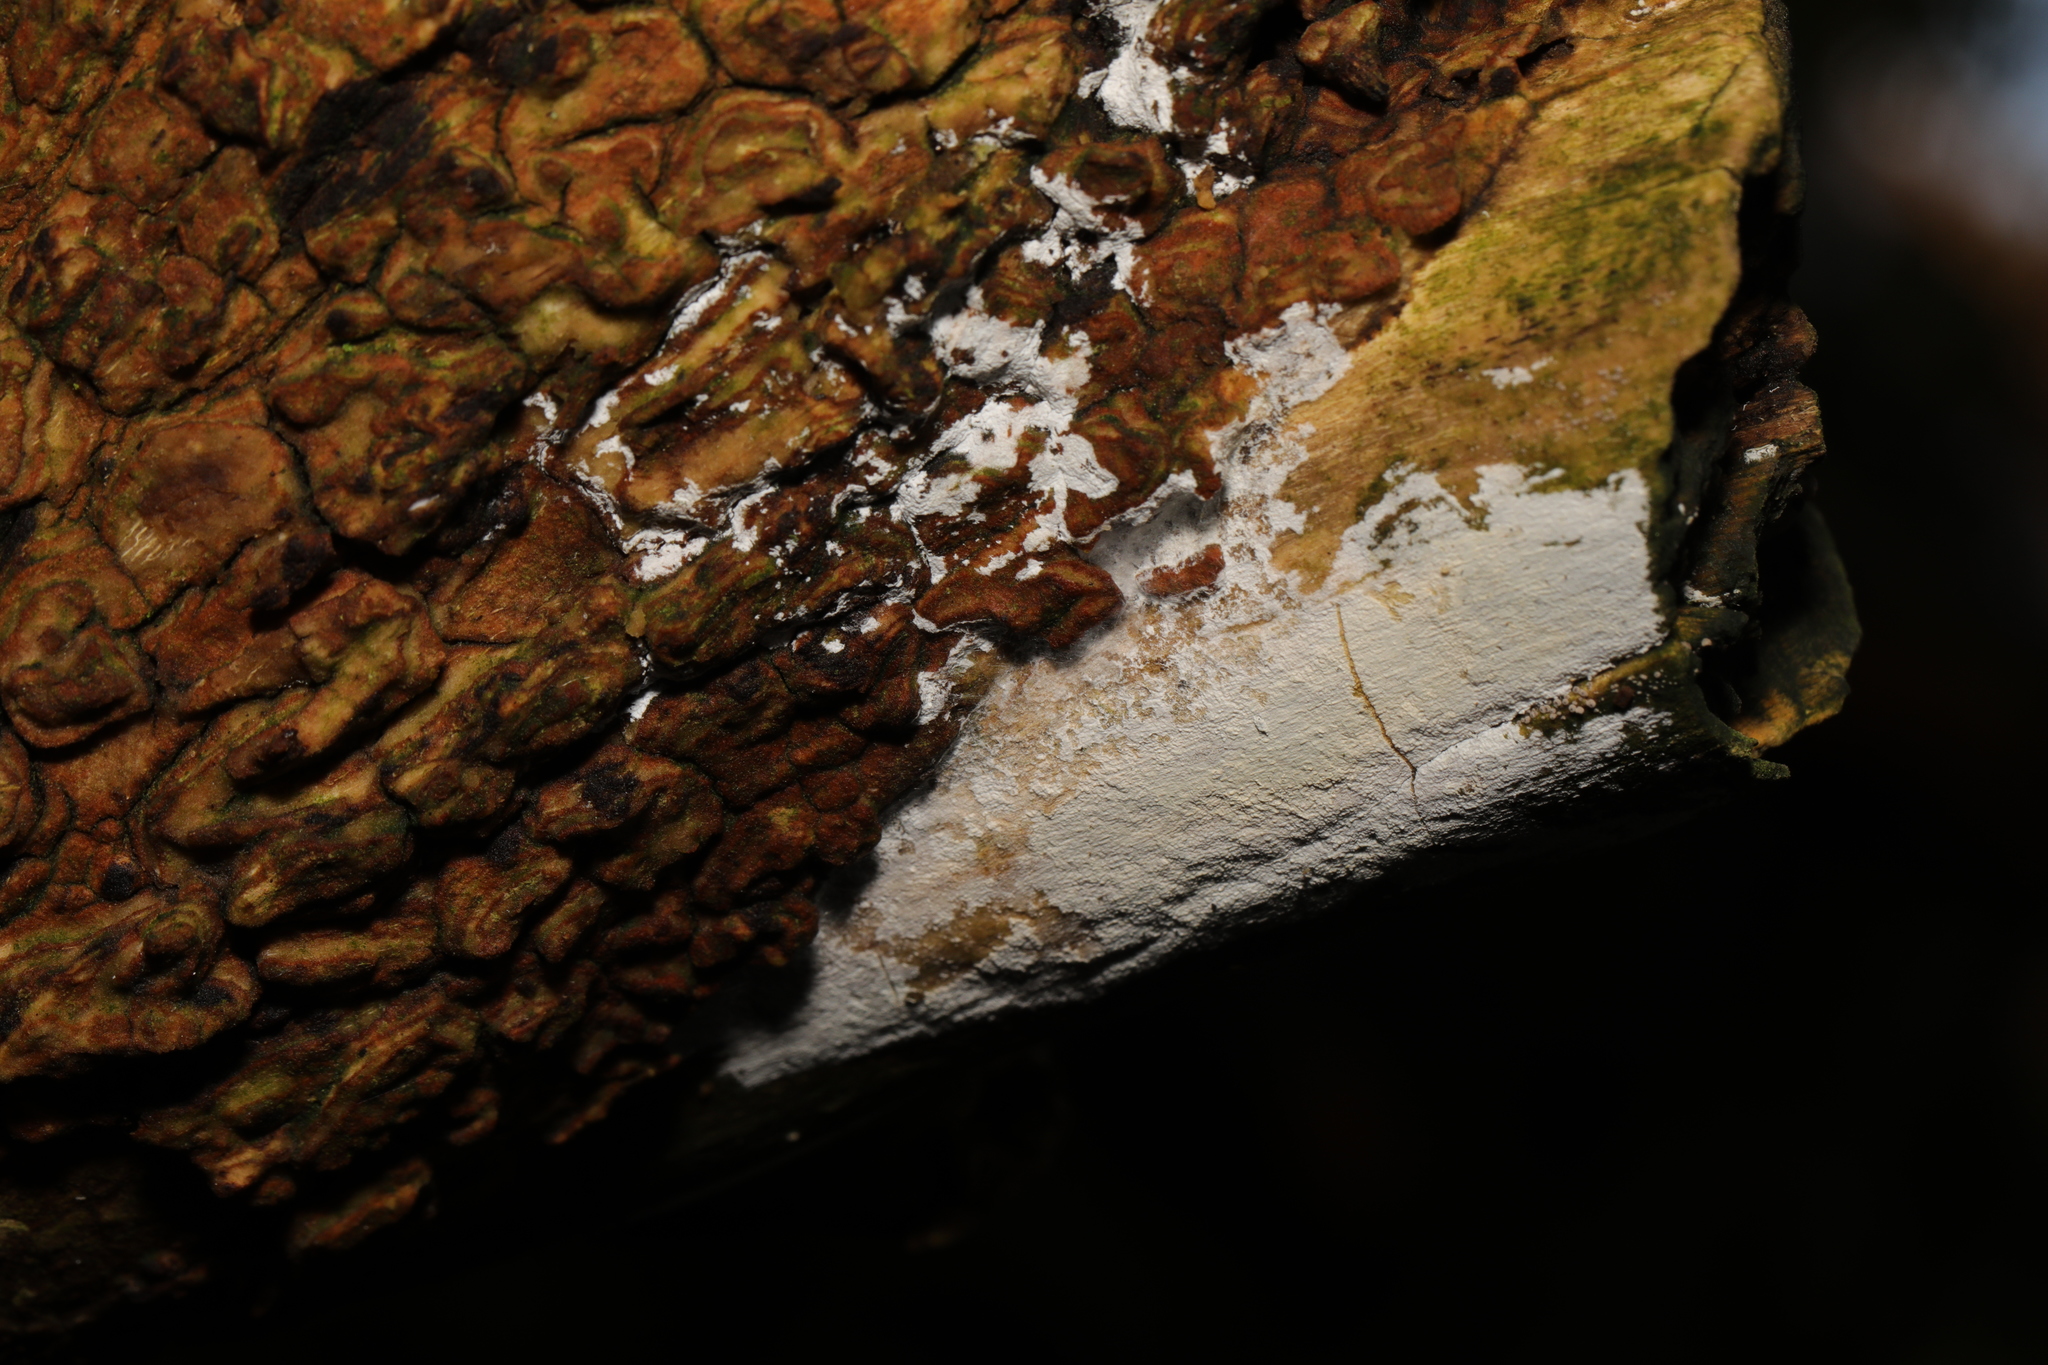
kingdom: Fungi
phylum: Basidiomycota
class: Agaricomycetes
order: Corticiales
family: Corticiaceae
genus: Lyomyces
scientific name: Lyomyces sambuci
